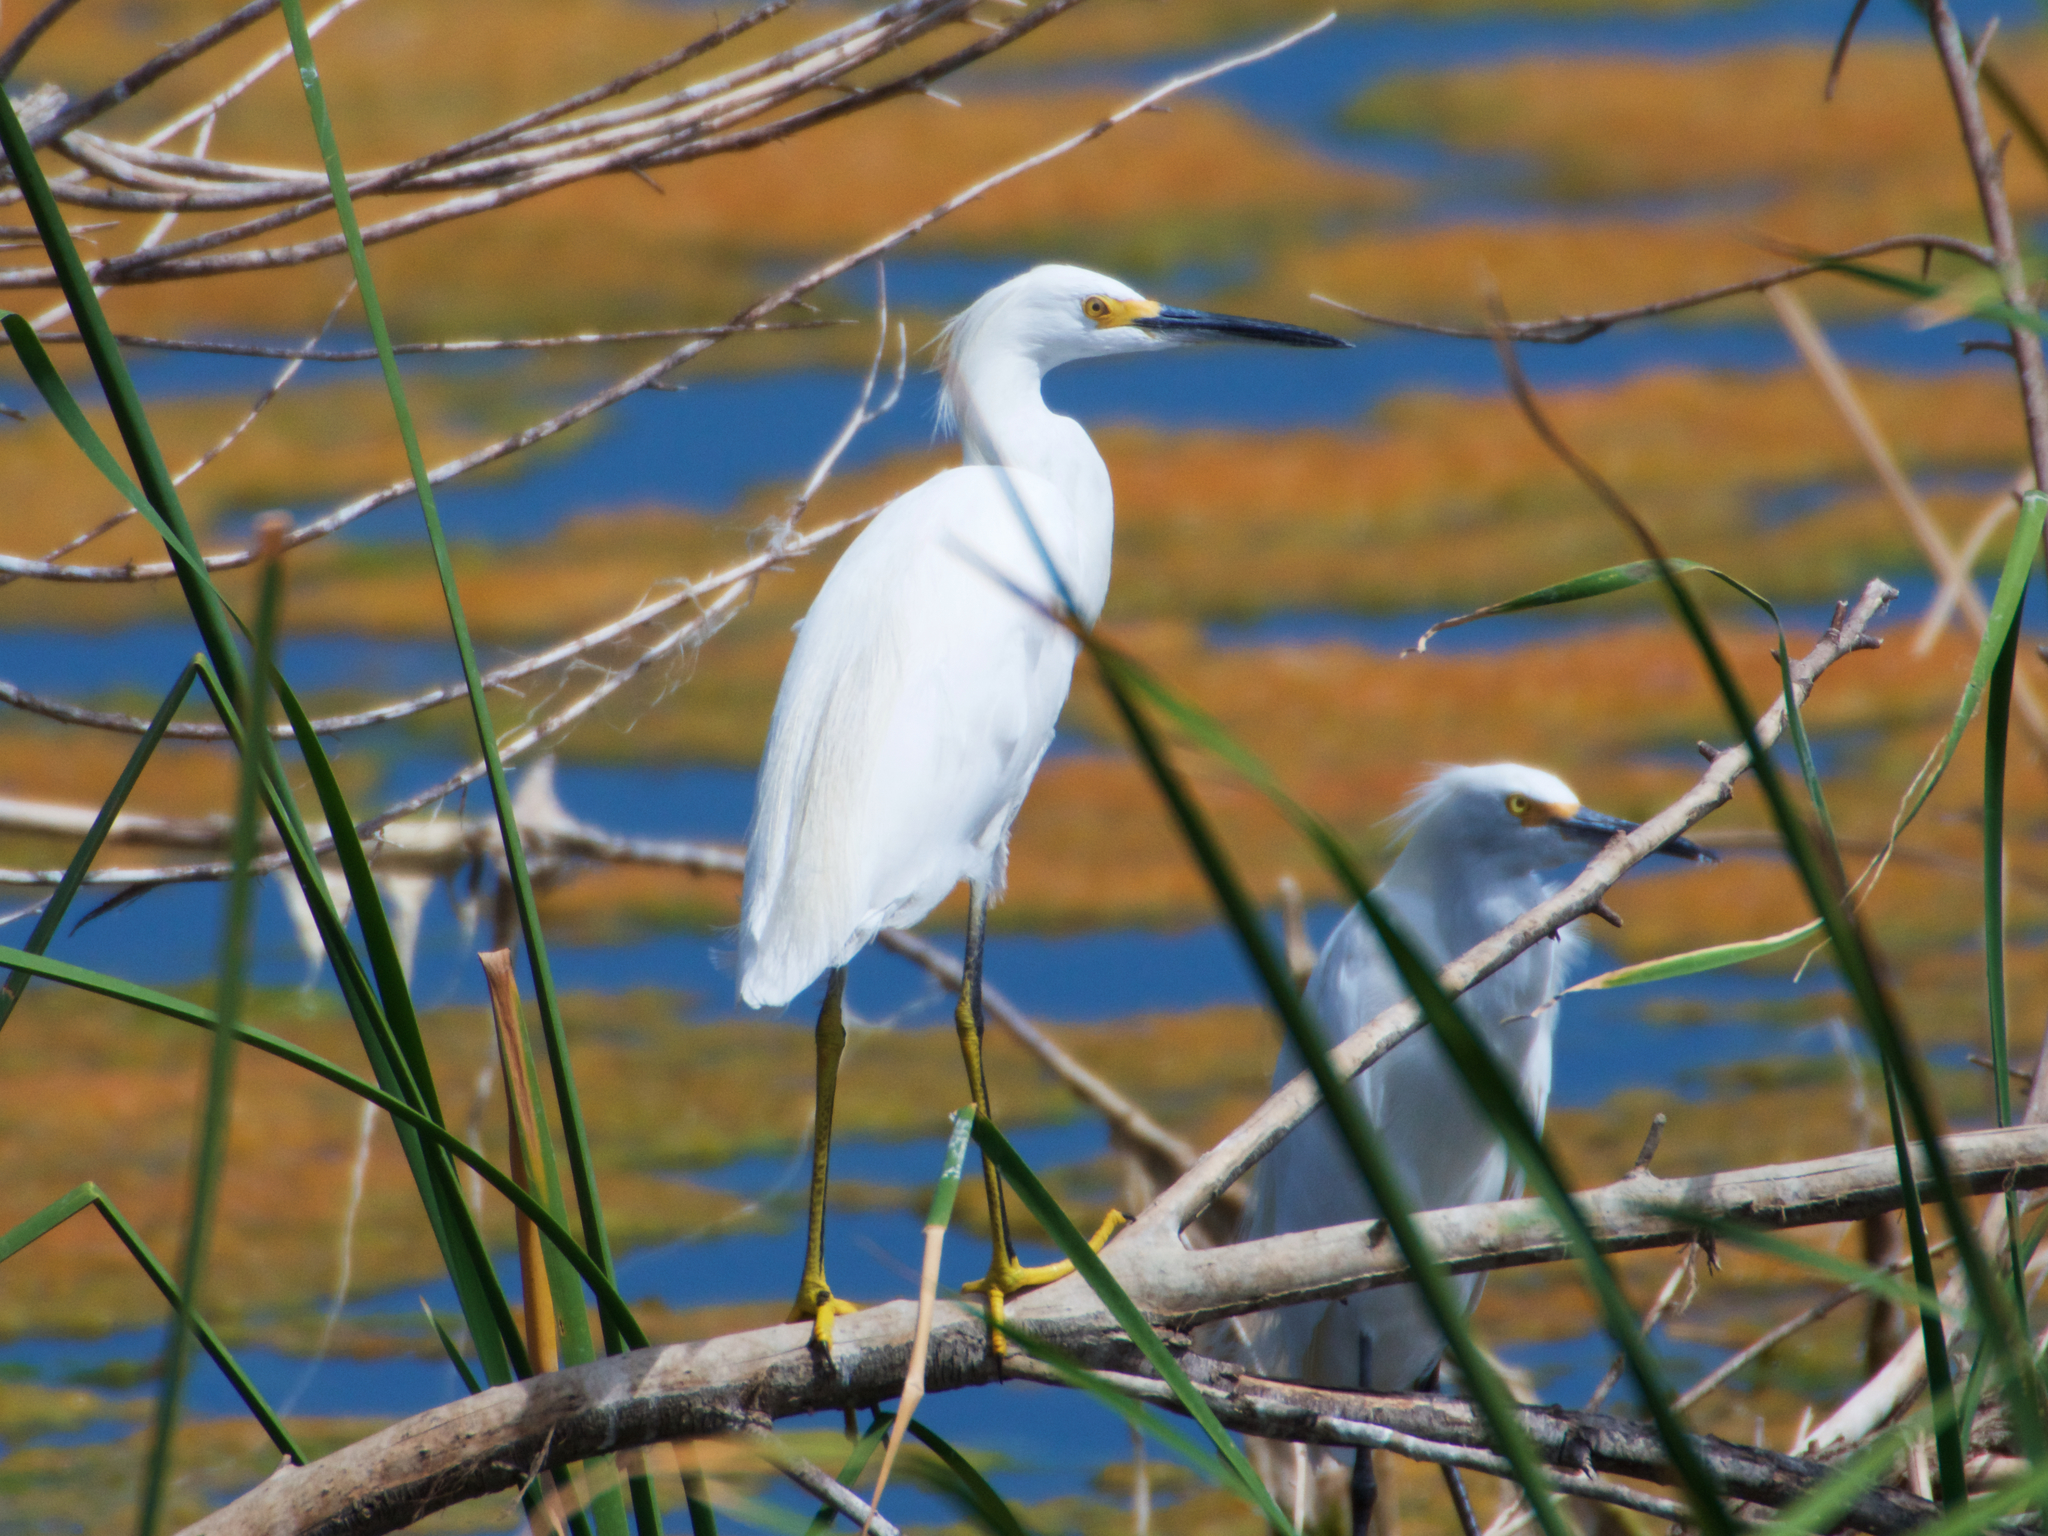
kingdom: Animalia
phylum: Chordata
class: Aves
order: Pelecaniformes
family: Ardeidae
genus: Egretta
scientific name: Egretta thula
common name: Snowy egret
